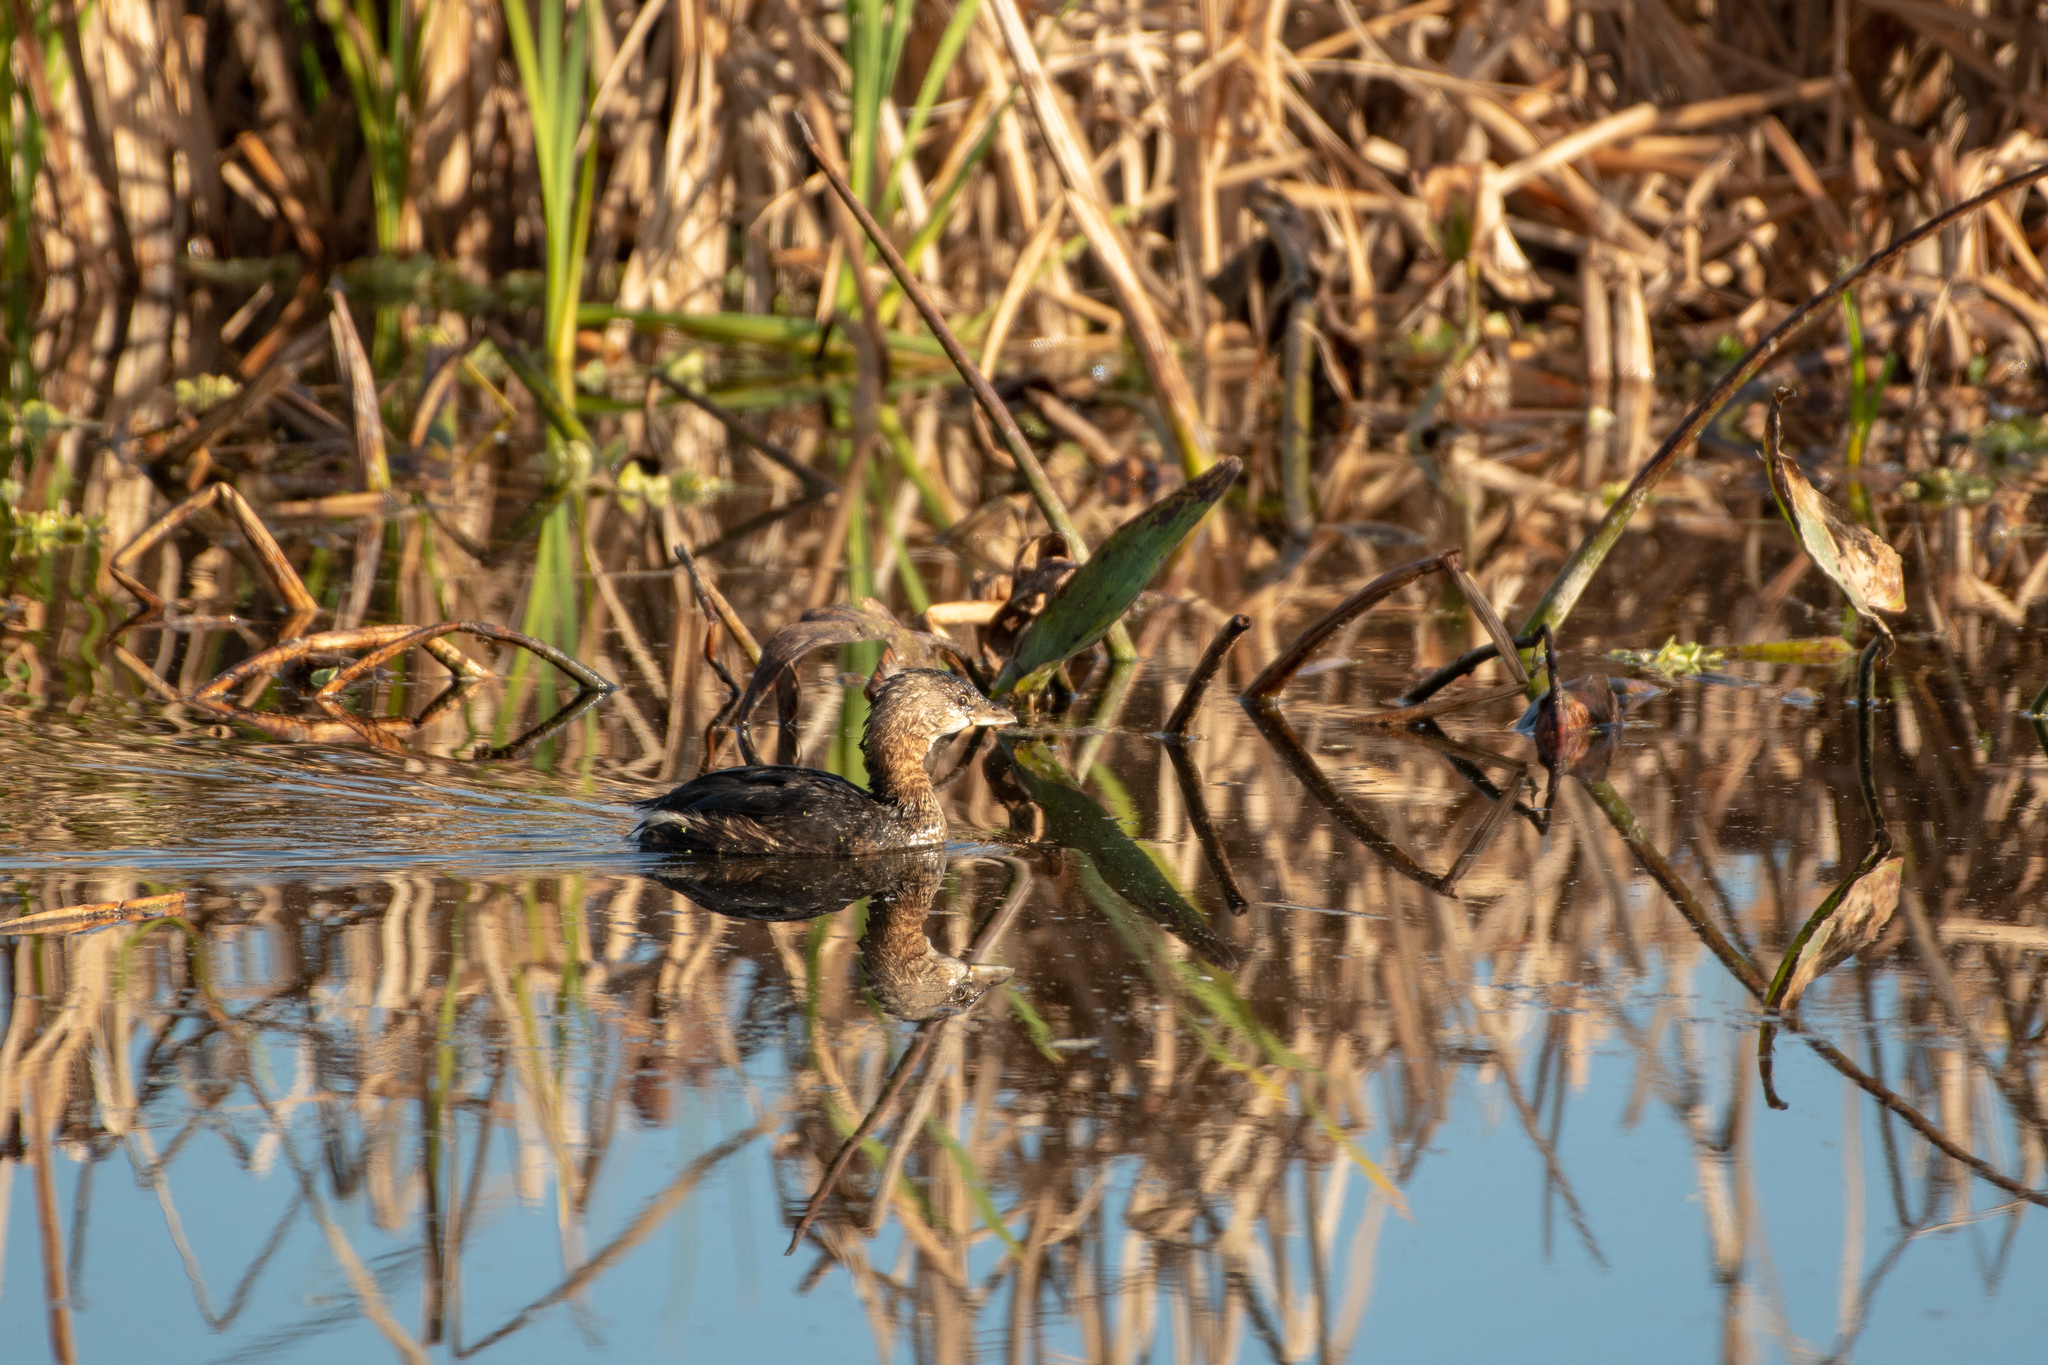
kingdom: Animalia
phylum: Chordata
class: Aves
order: Podicipediformes
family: Podicipedidae
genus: Podilymbus
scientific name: Podilymbus podiceps
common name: Pied-billed grebe
